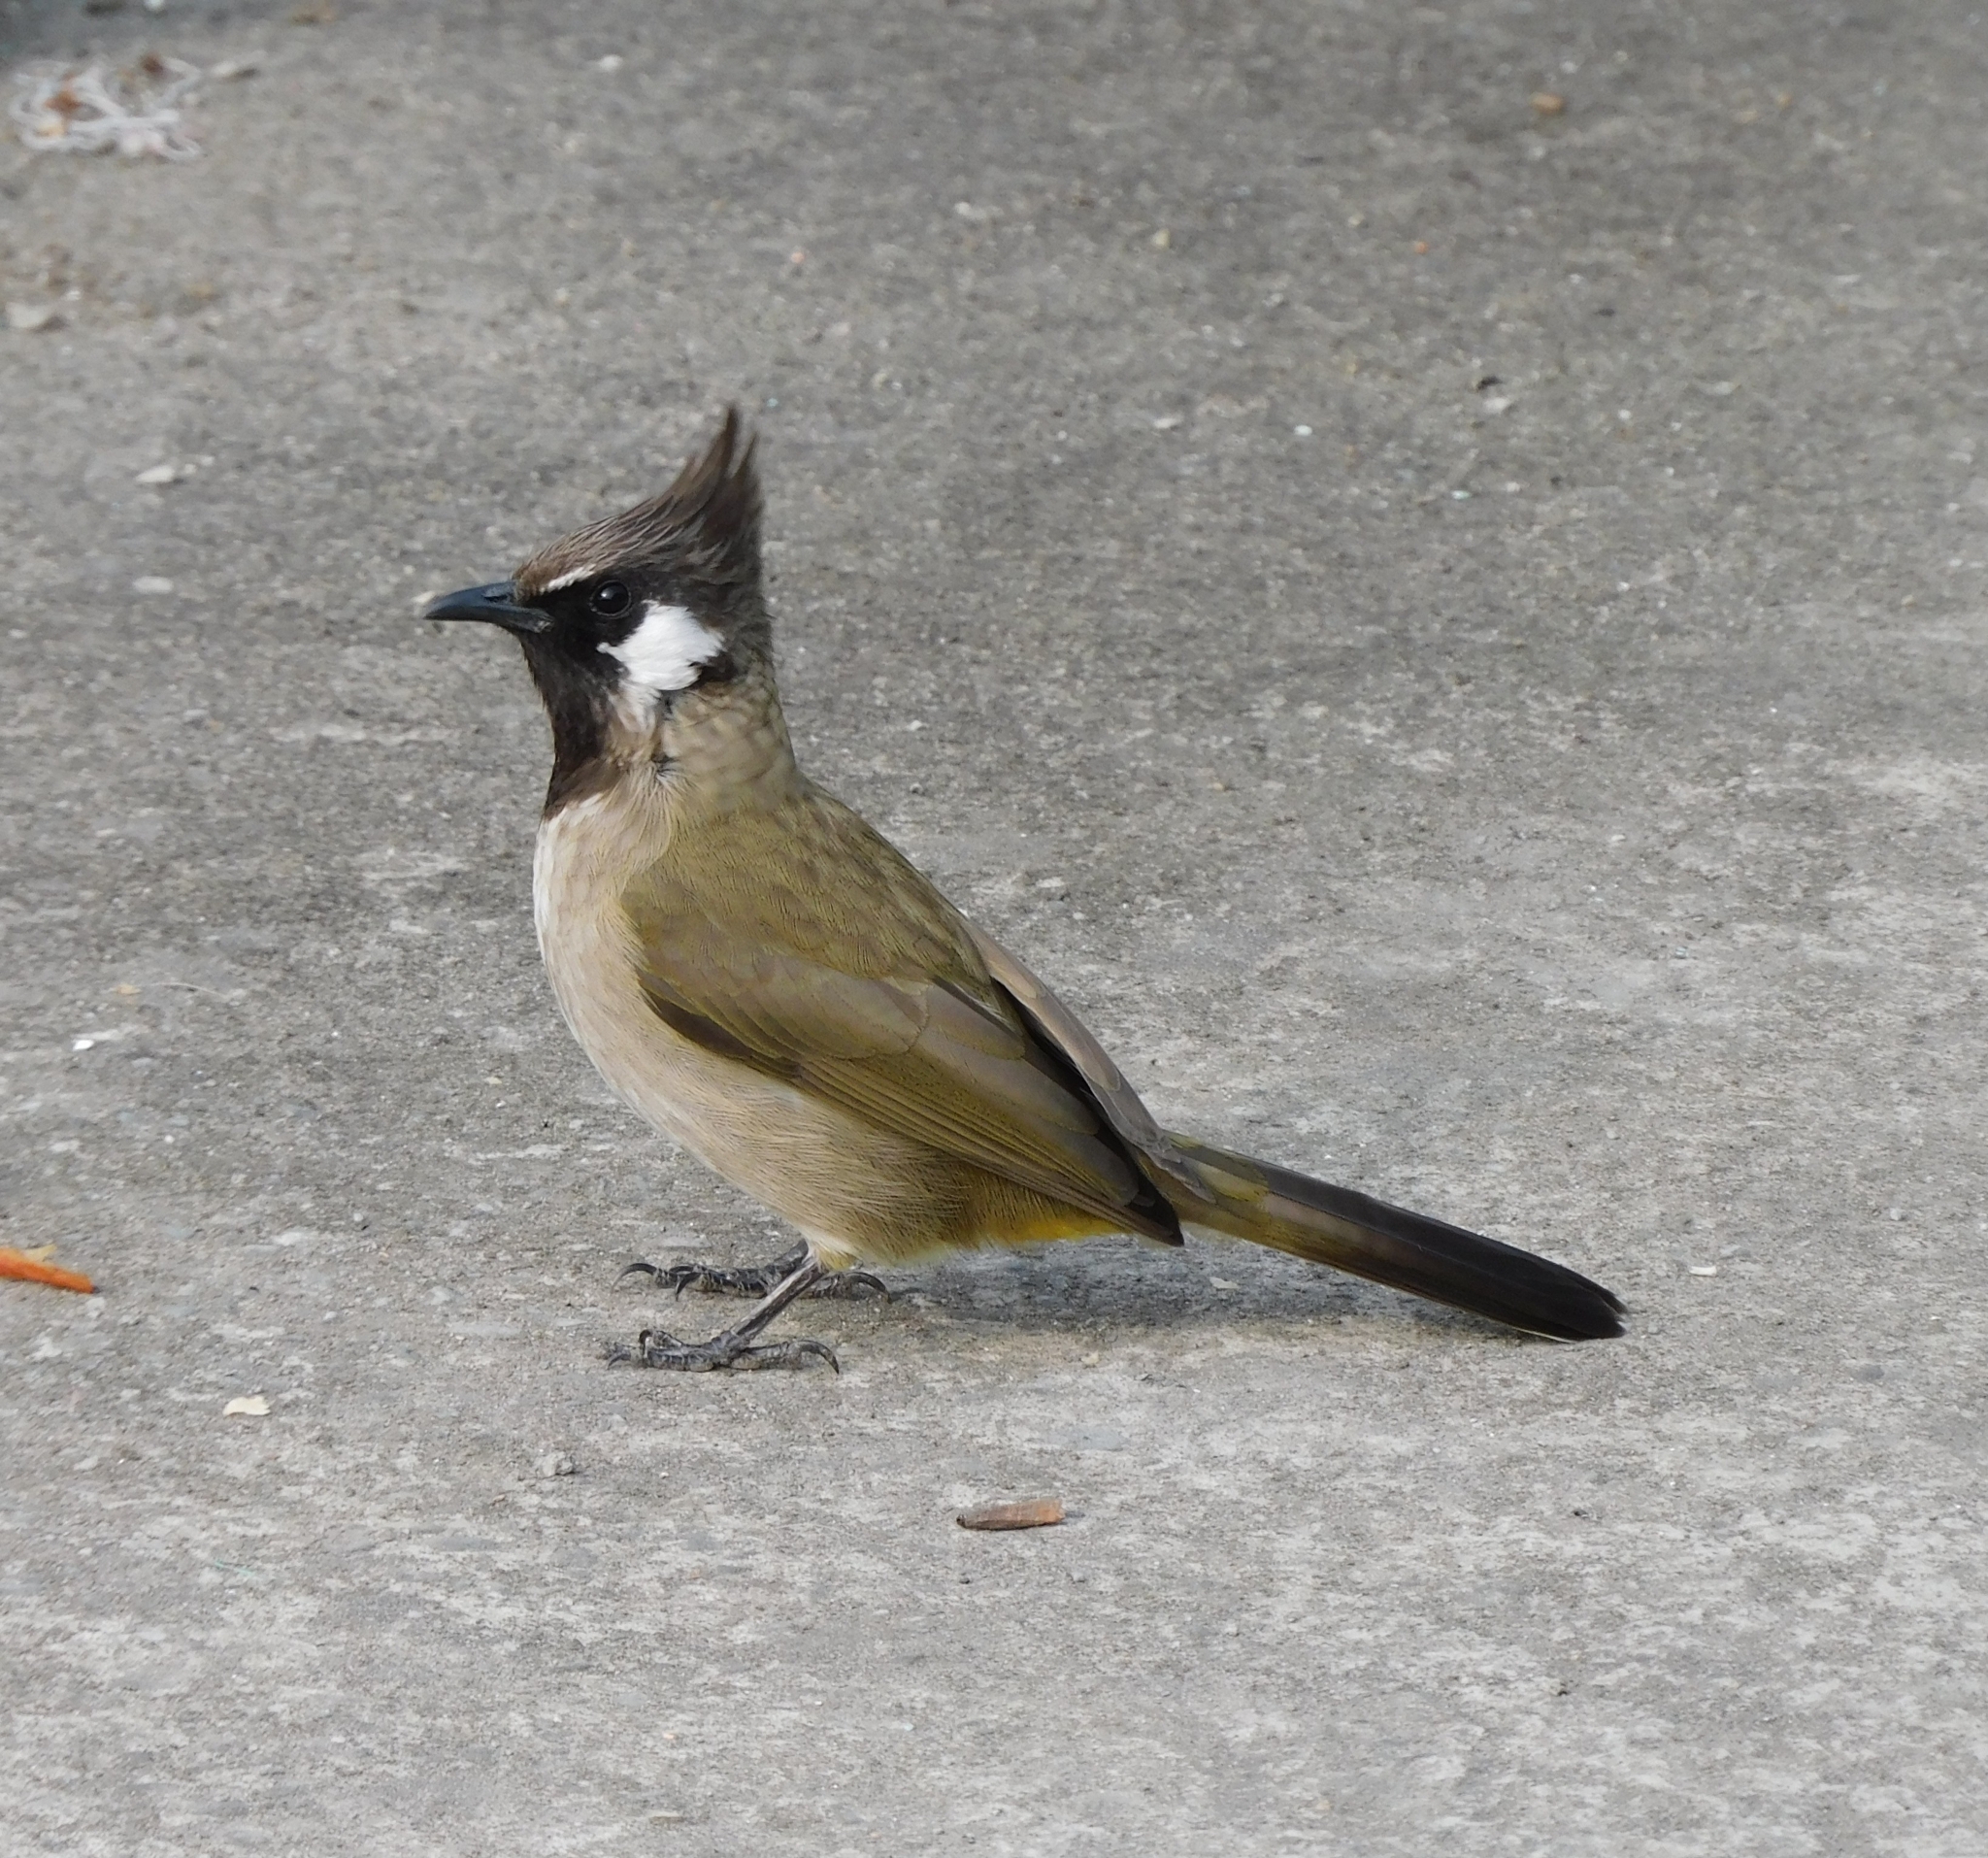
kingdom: Animalia
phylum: Chordata
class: Aves
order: Passeriformes
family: Pycnonotidae
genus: Pycnonotus
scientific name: Pycnonotus leucogenys
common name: Himalayan bulbul
